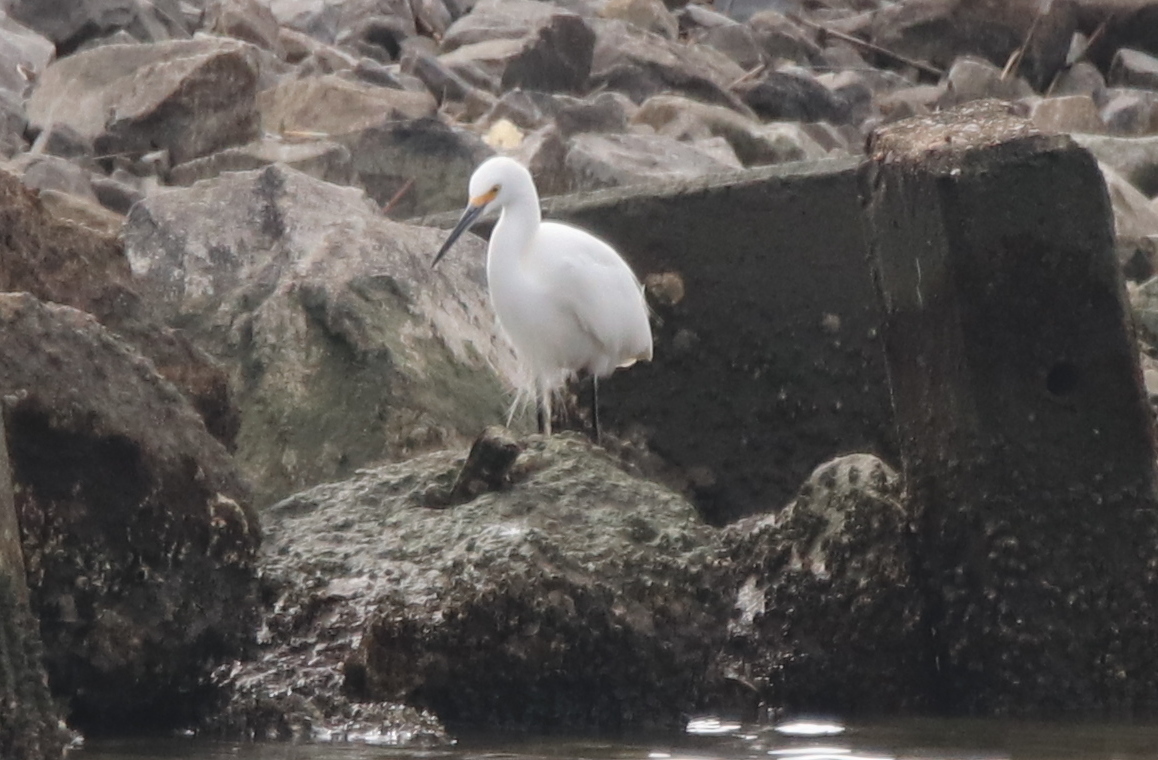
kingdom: Animalia
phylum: Chordata
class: Aves
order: Pelecaniformes
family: Ardeidae
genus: Egretta
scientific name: Egretta thula
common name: Snowy egret
